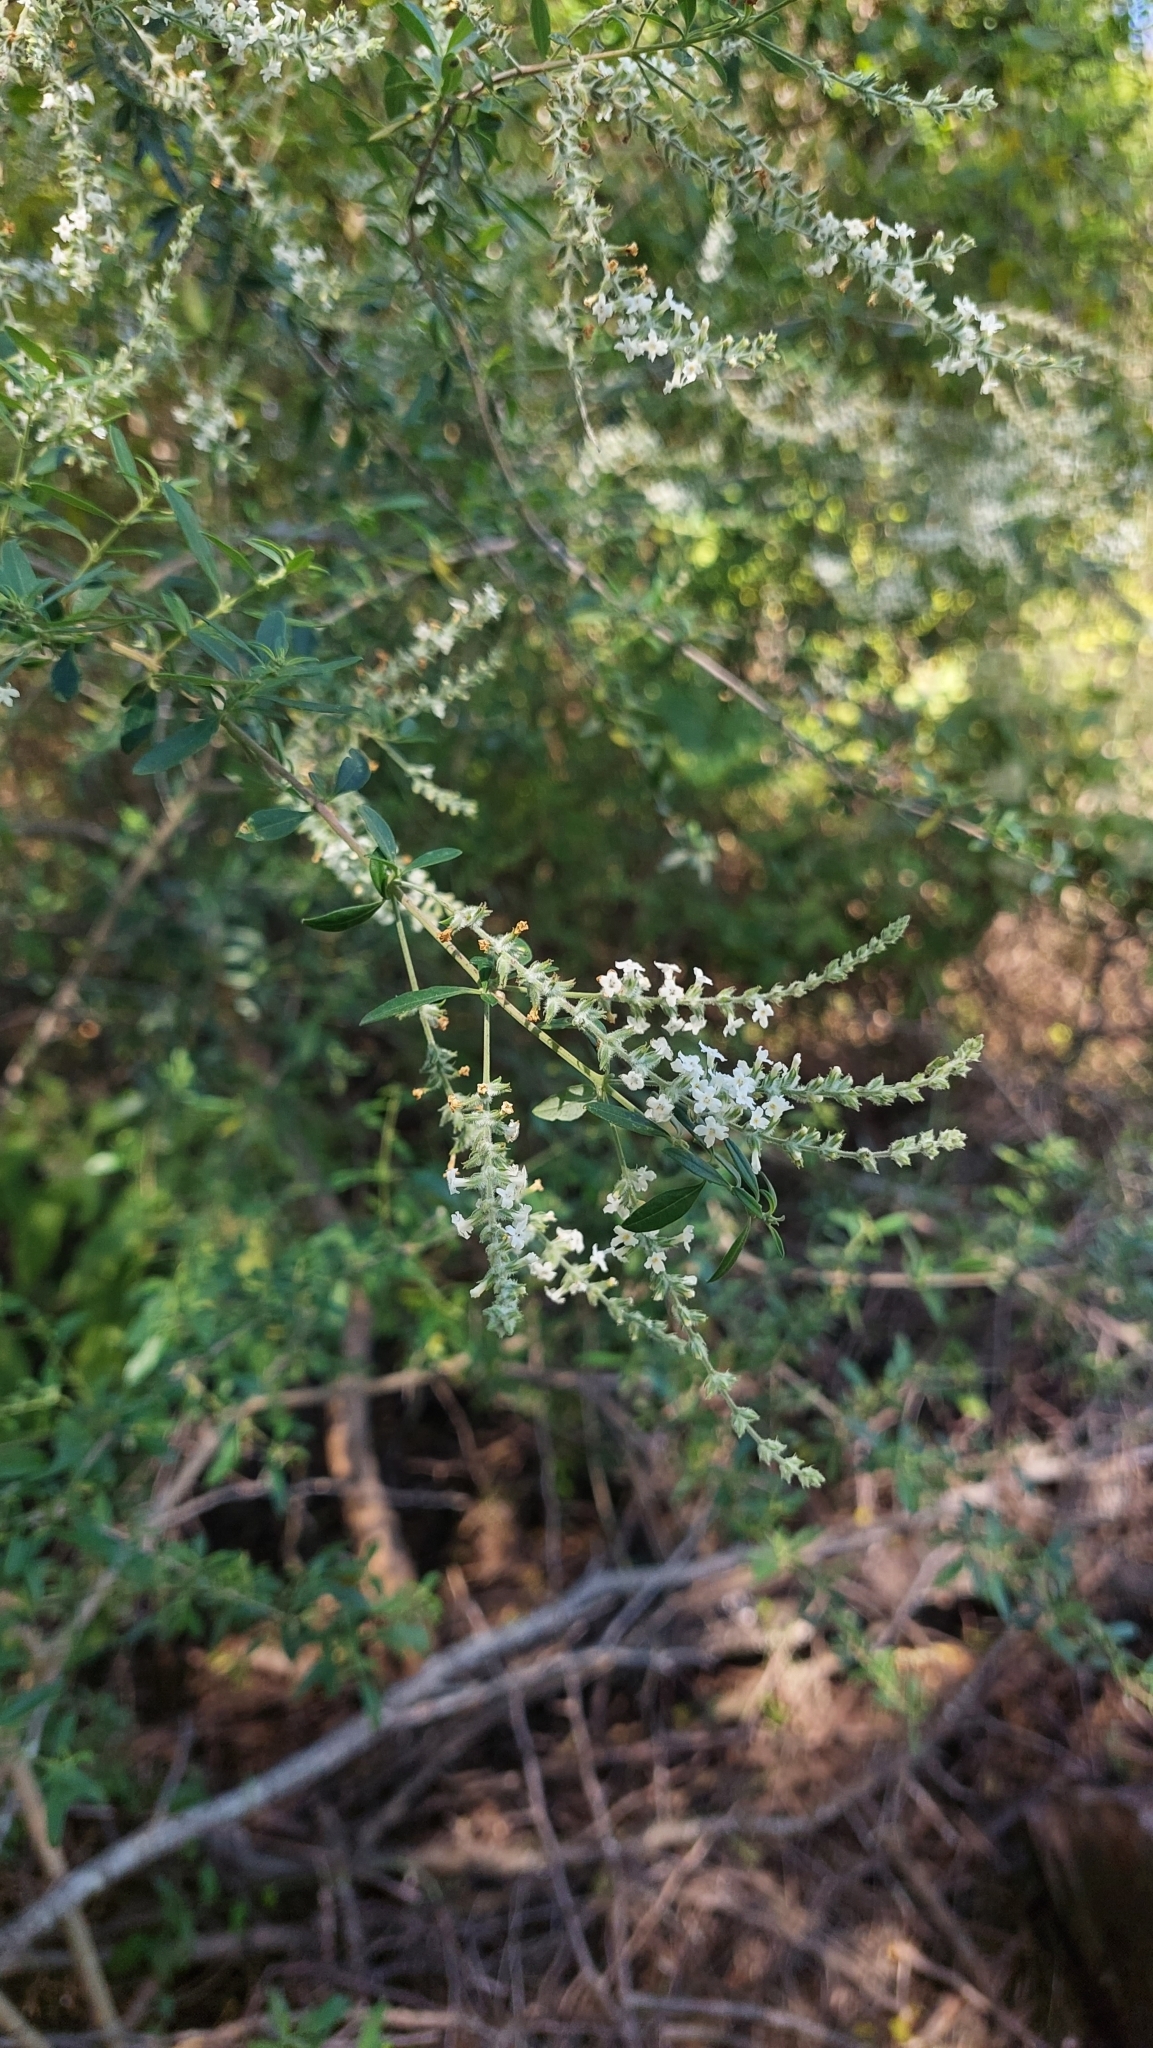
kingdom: Plantae
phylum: Tracheophyta
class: Magnoliopsida
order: Lamiales
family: Verbenaceae
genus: Aloysia
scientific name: Aloysia gratissima
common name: Common bee-brush
